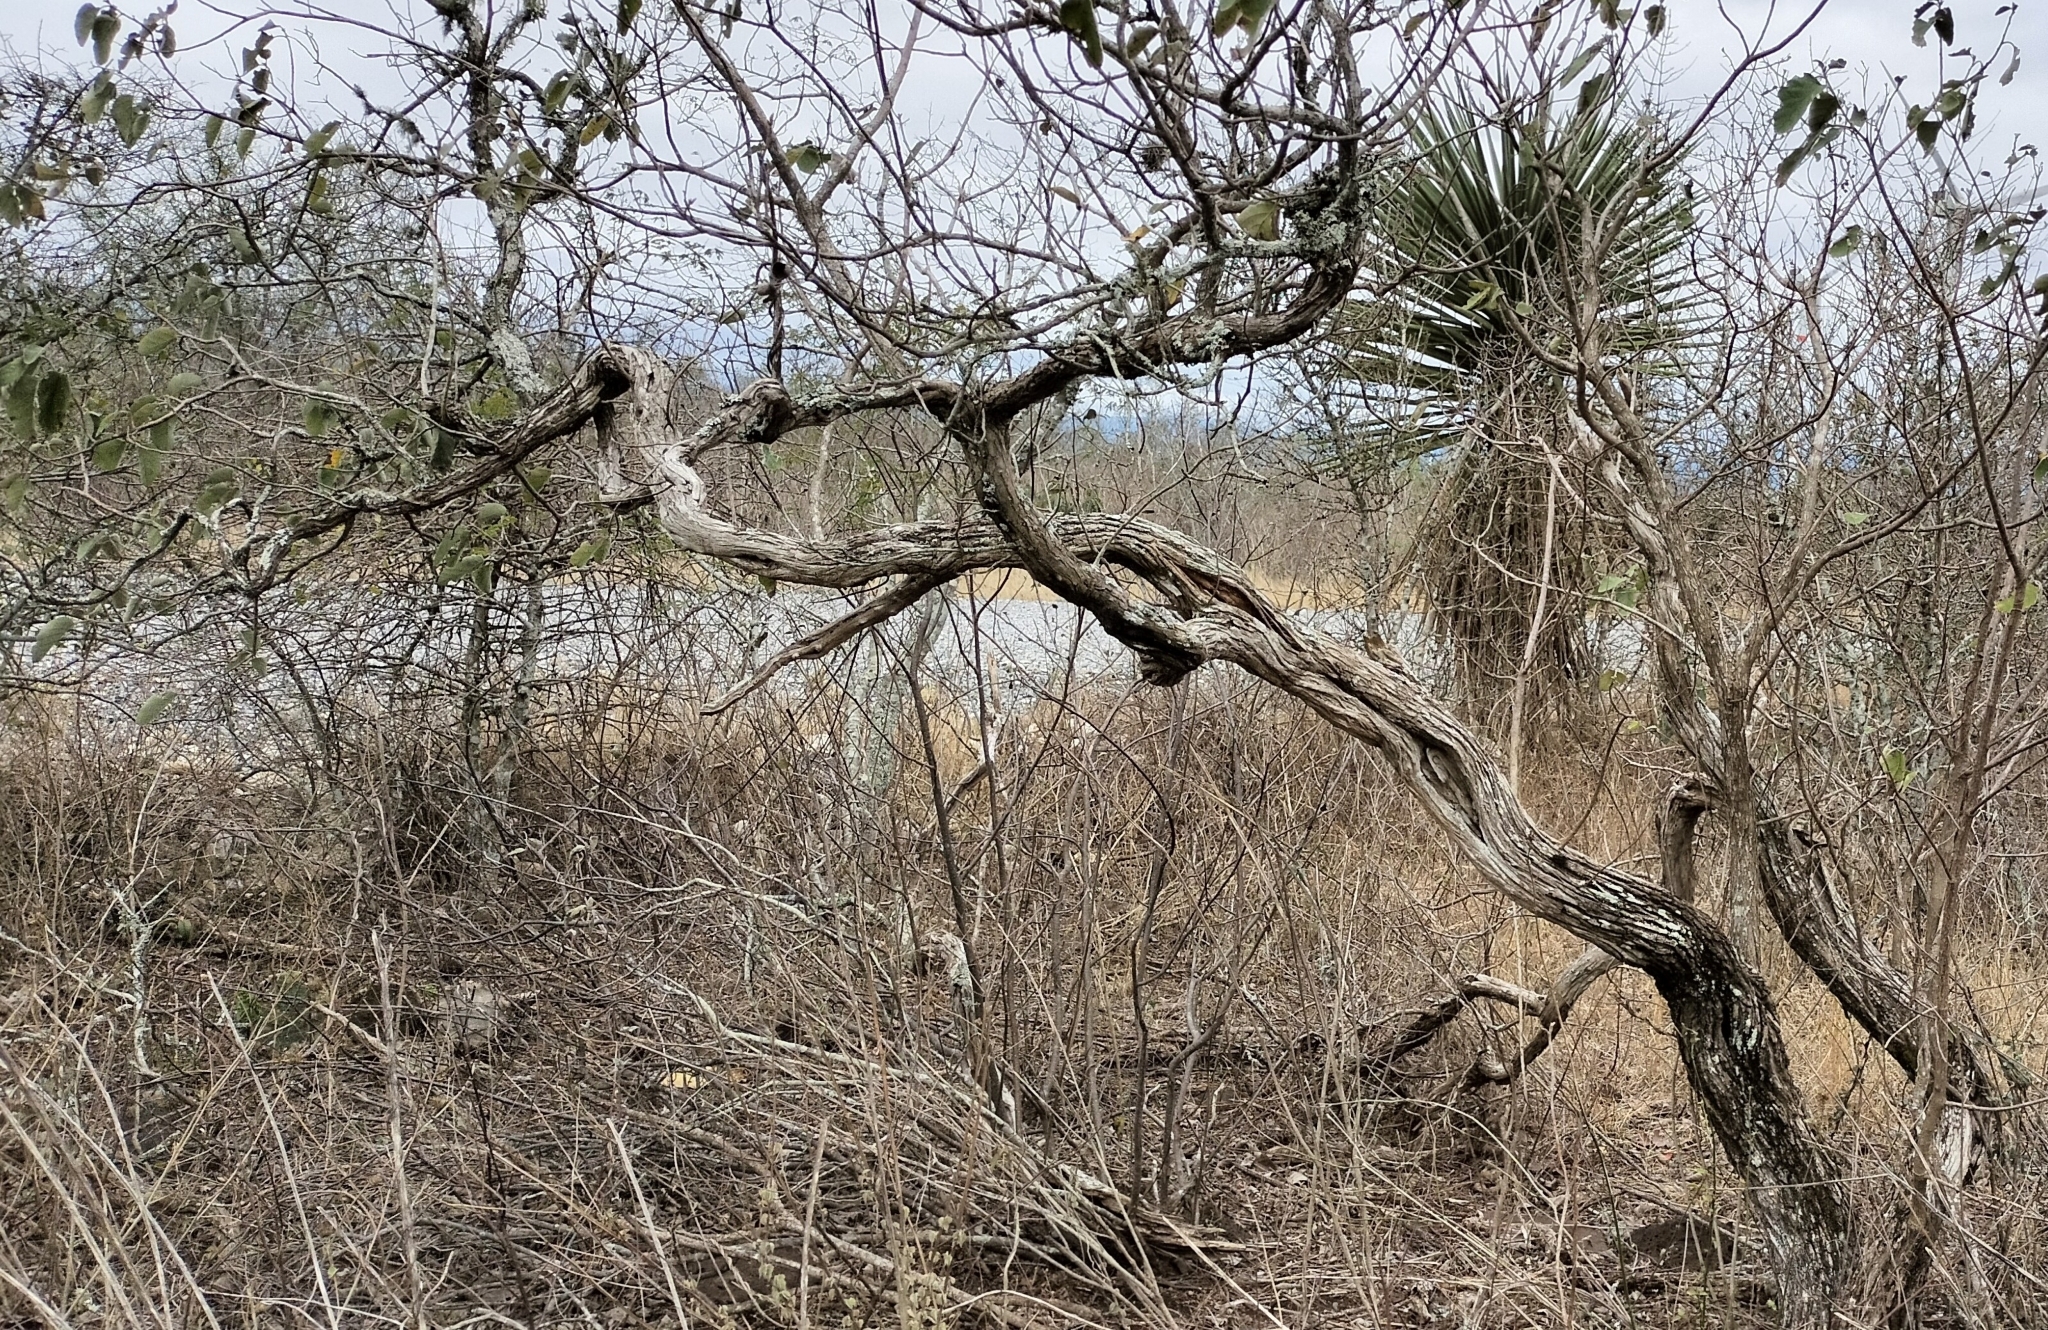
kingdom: Plantae
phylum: Tracheophyta
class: Magnoliopsida
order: Boraginales
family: Cordiaceae
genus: Cordia
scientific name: Cordia boissieri
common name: Mexican-olive
